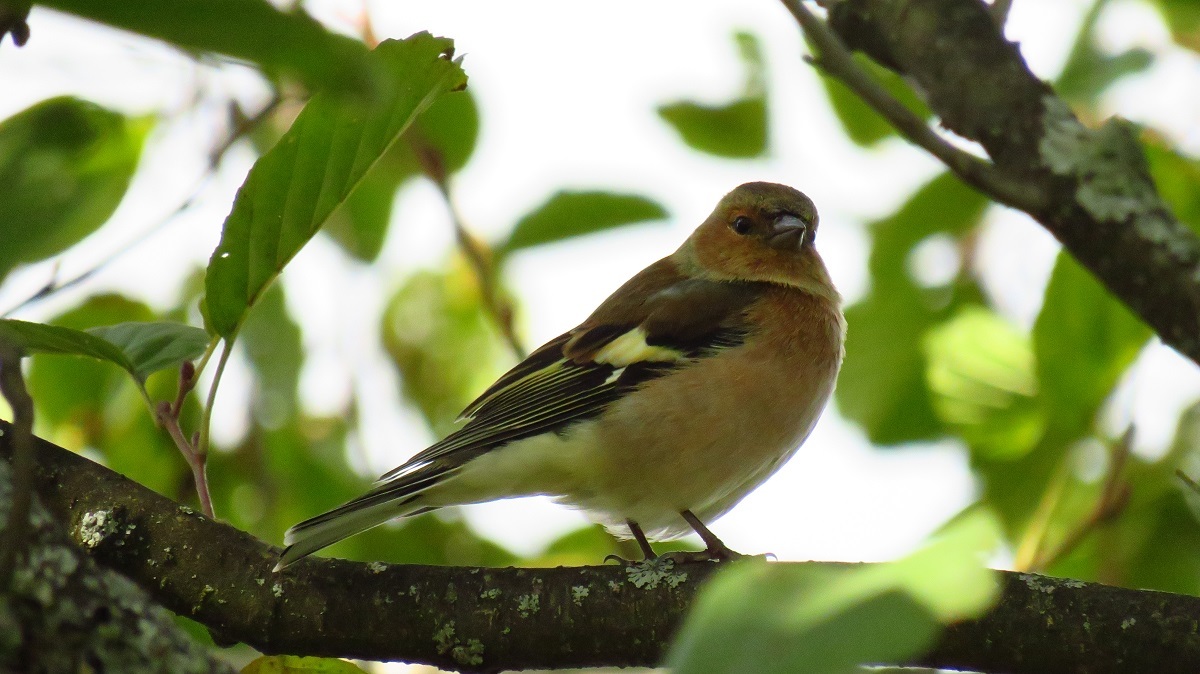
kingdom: Animalia
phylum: Chordata
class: Aves
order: Passeriformes
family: Fringillidae
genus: Fringilla
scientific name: Fringilla coelebs
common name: Common chaffinch
